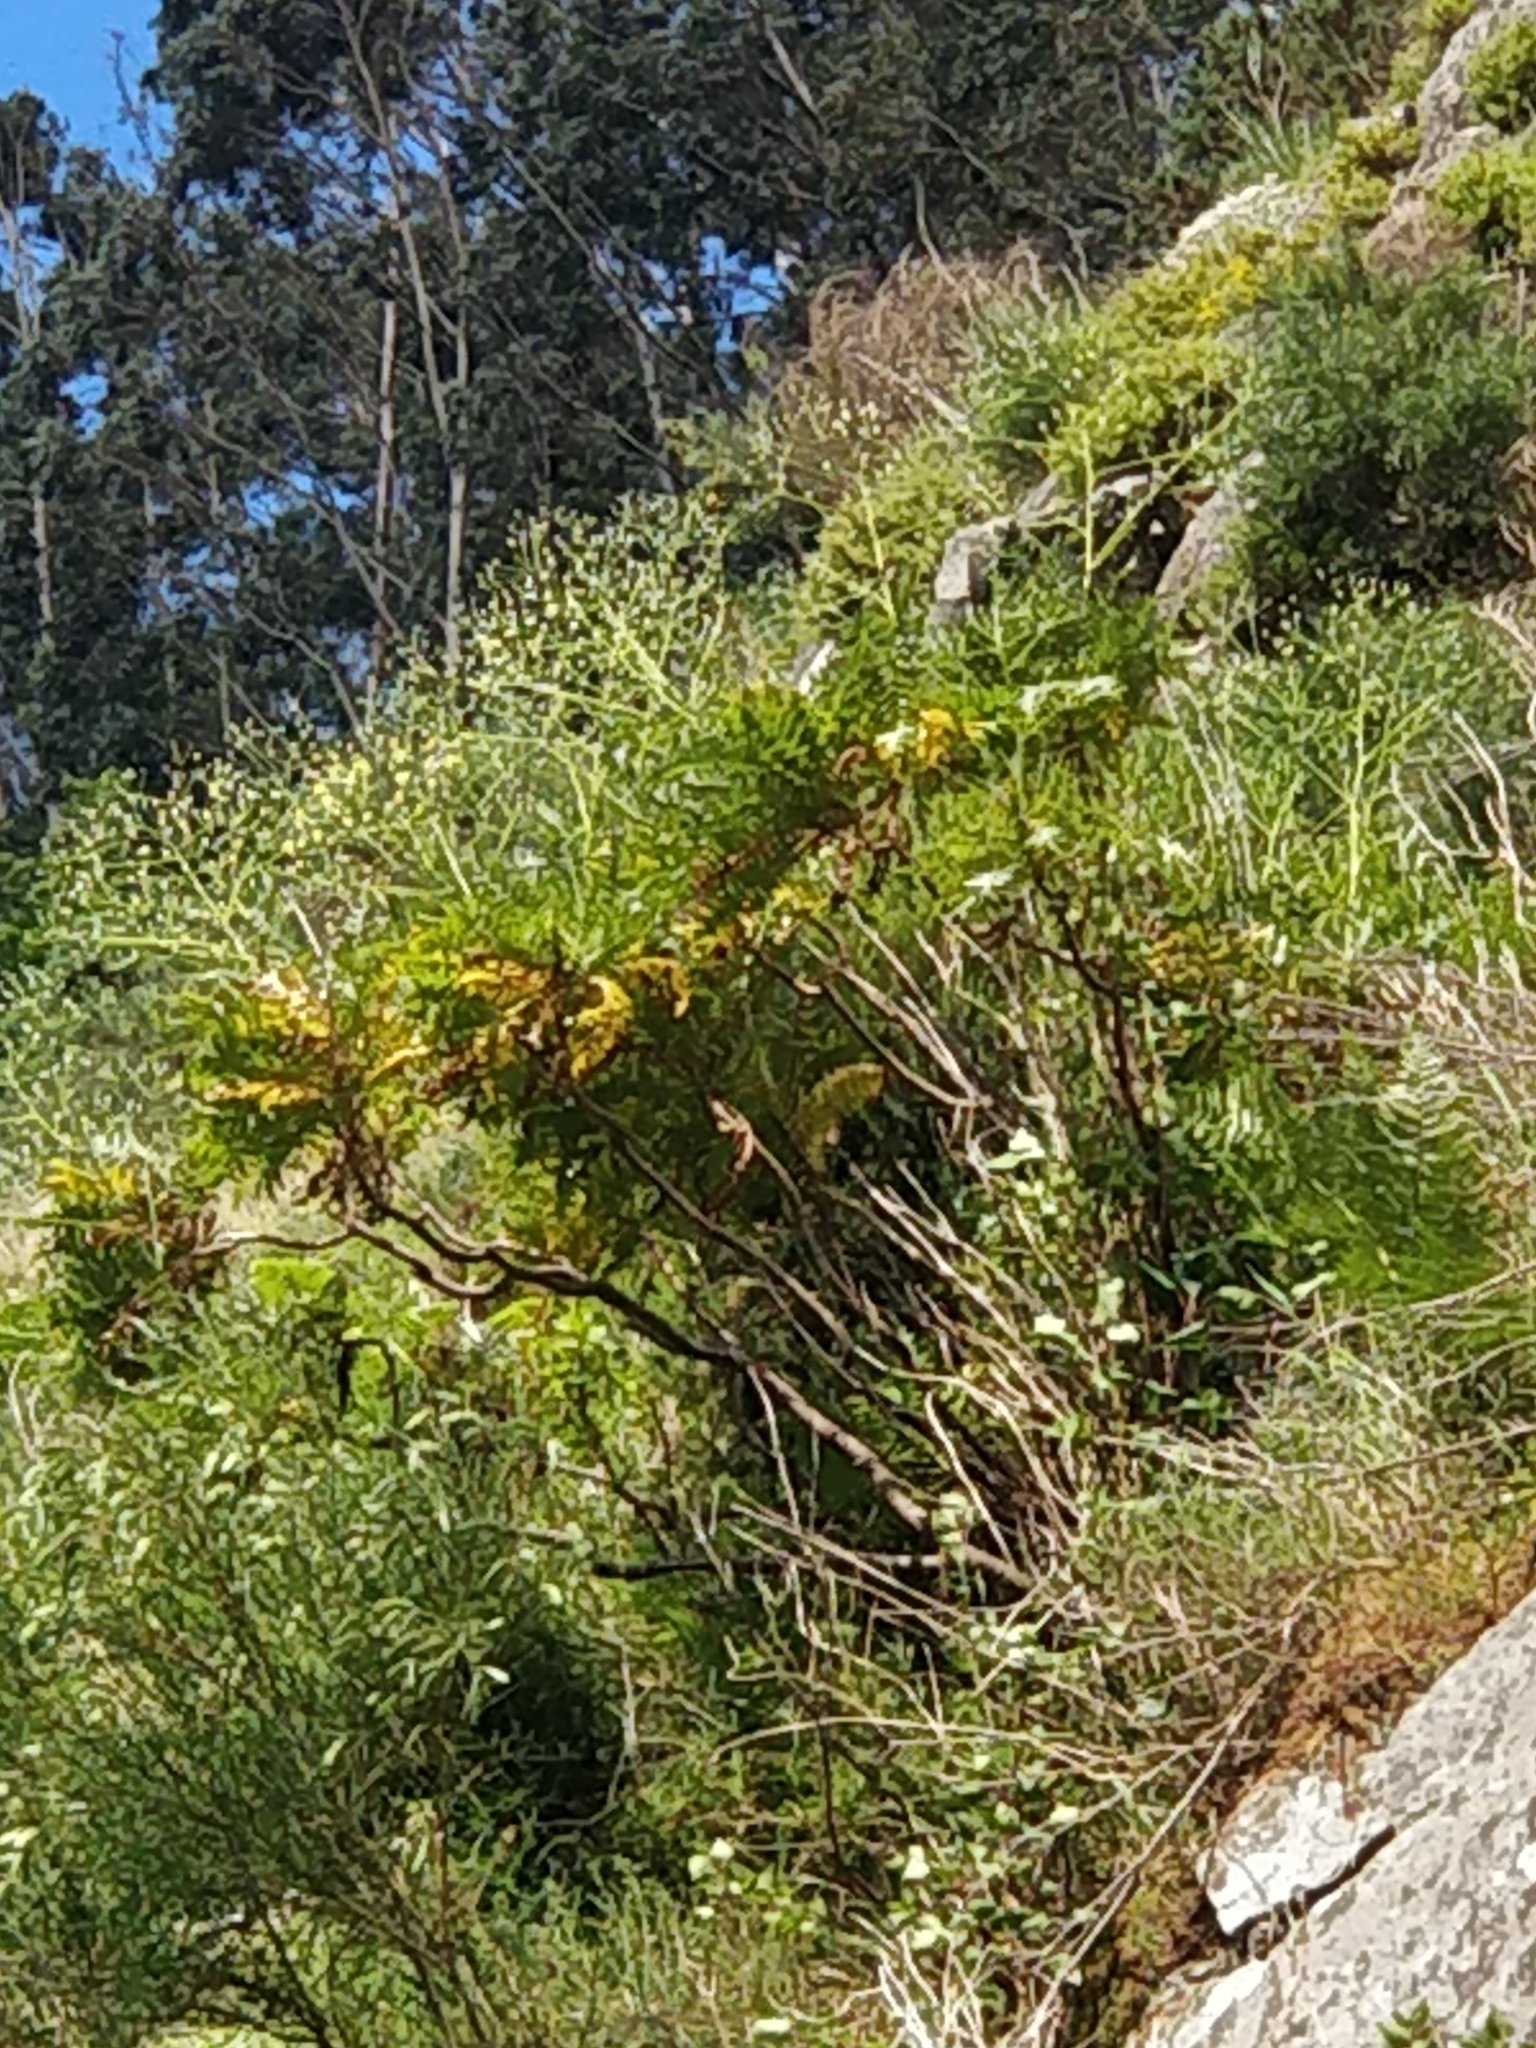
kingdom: Plantae
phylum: Tracheophyta
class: Magnoliopsida
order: Asterales
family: Asteraceae
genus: Sonchus
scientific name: Sonchus pinnatus
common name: Wing-leaved sow-thistle
